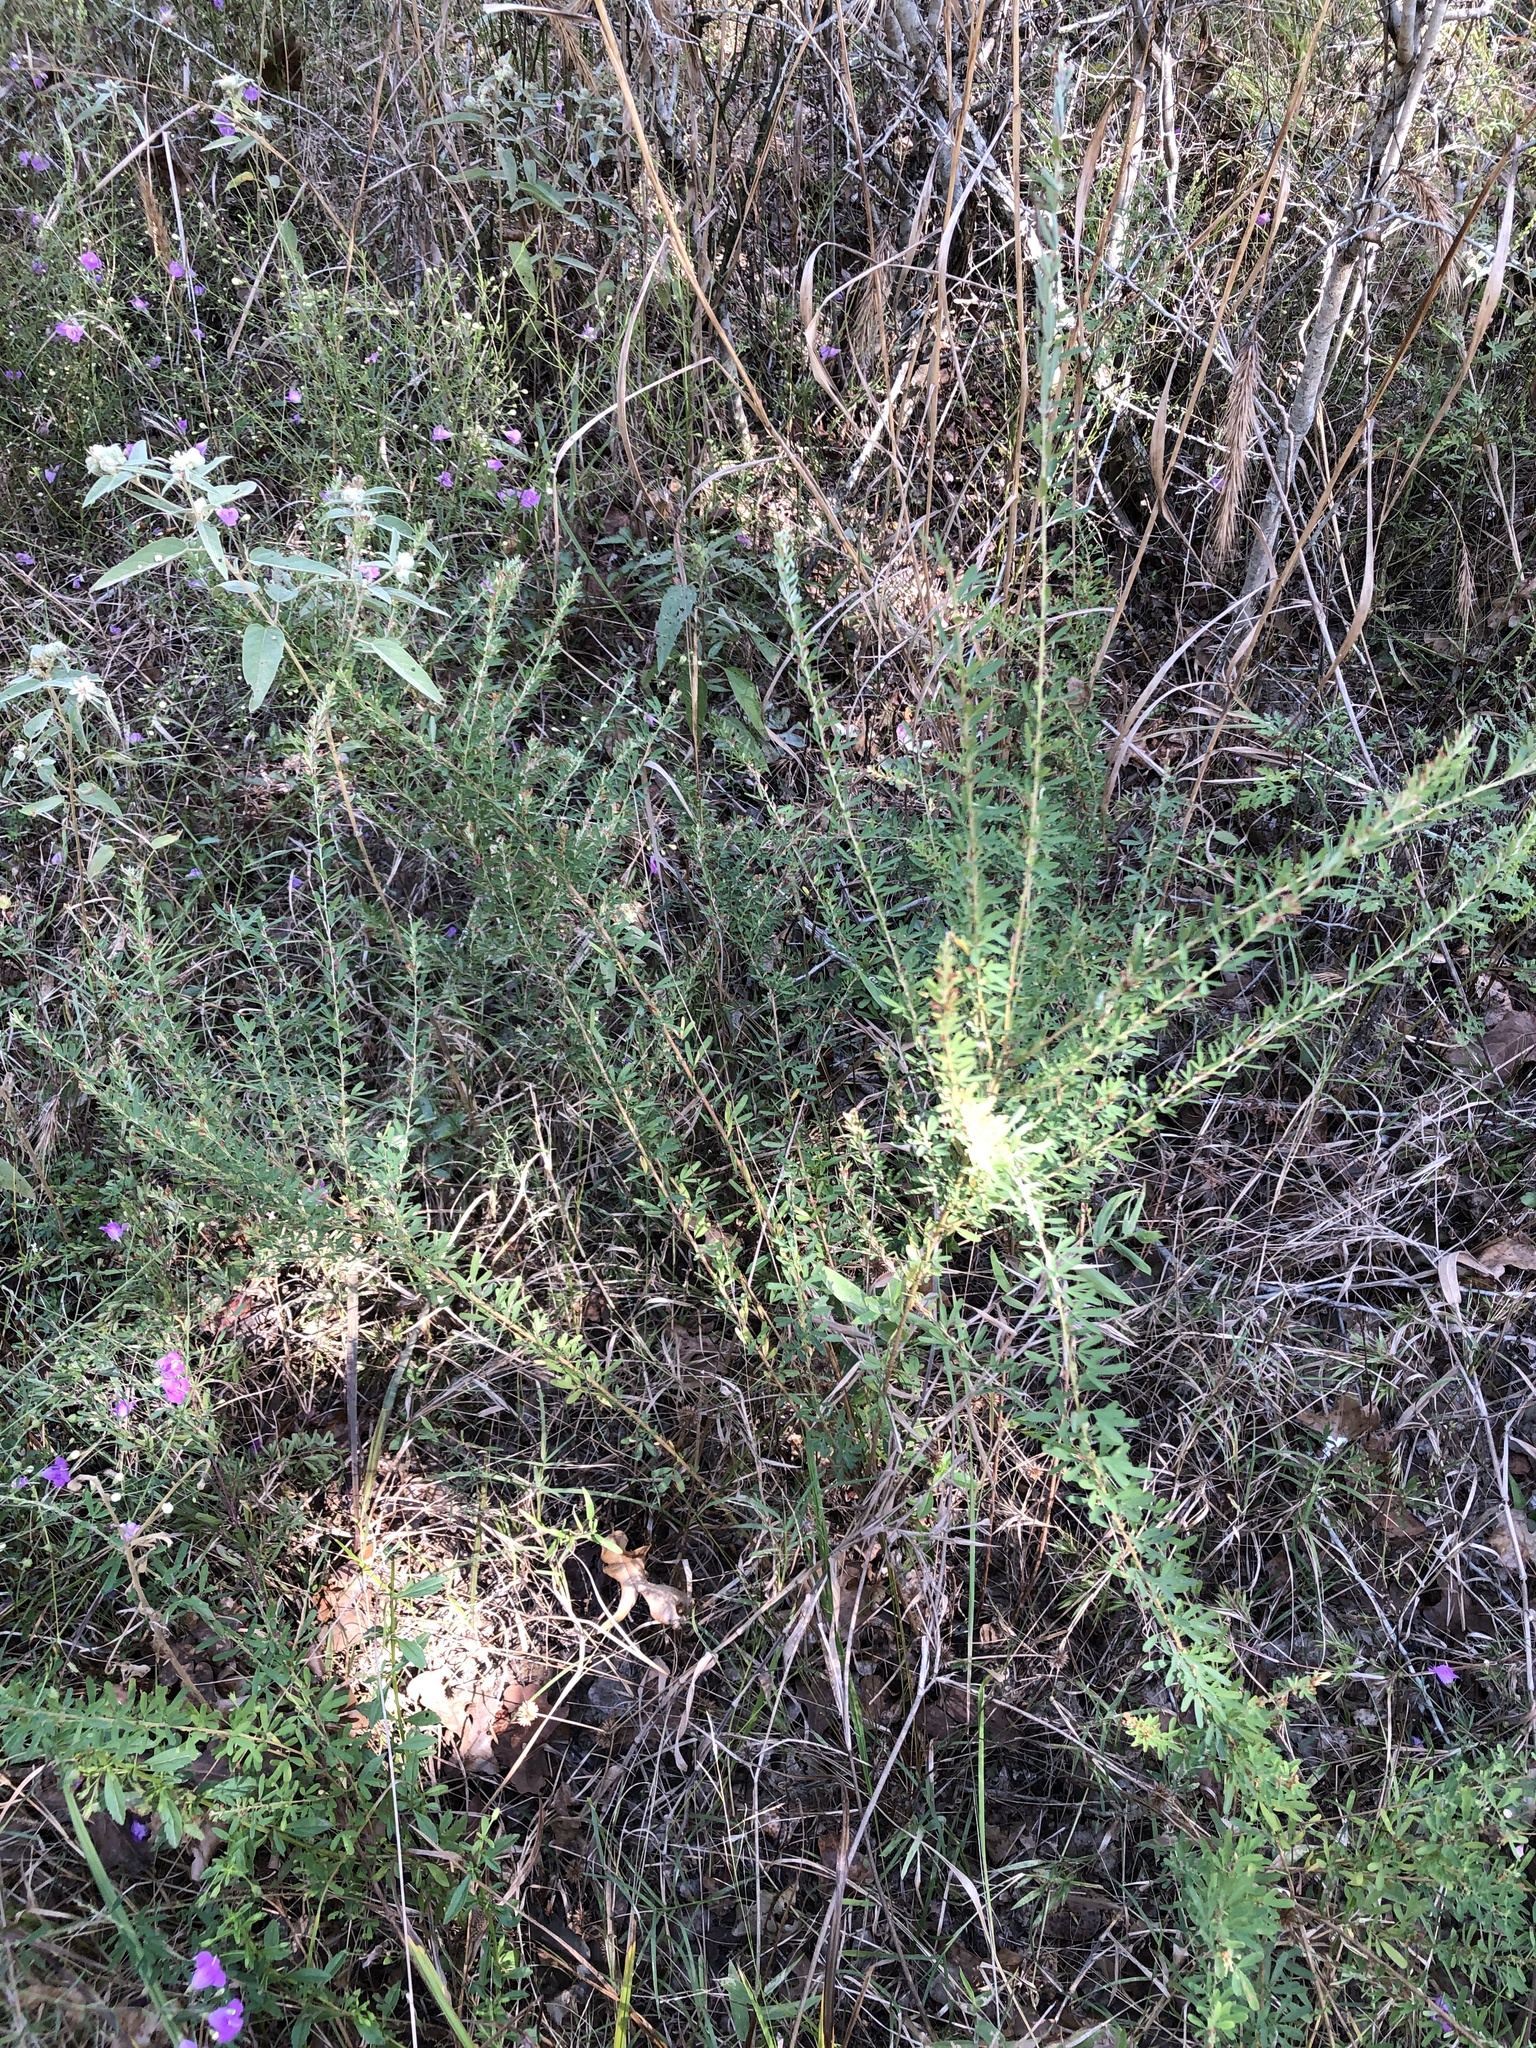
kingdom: Plantae
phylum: Tracheophyta
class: Magnoliopsida
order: Fabales
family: Fabaceae
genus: Lespedeza
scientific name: Lespedeza cuneata
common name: Chinese bush-clover
